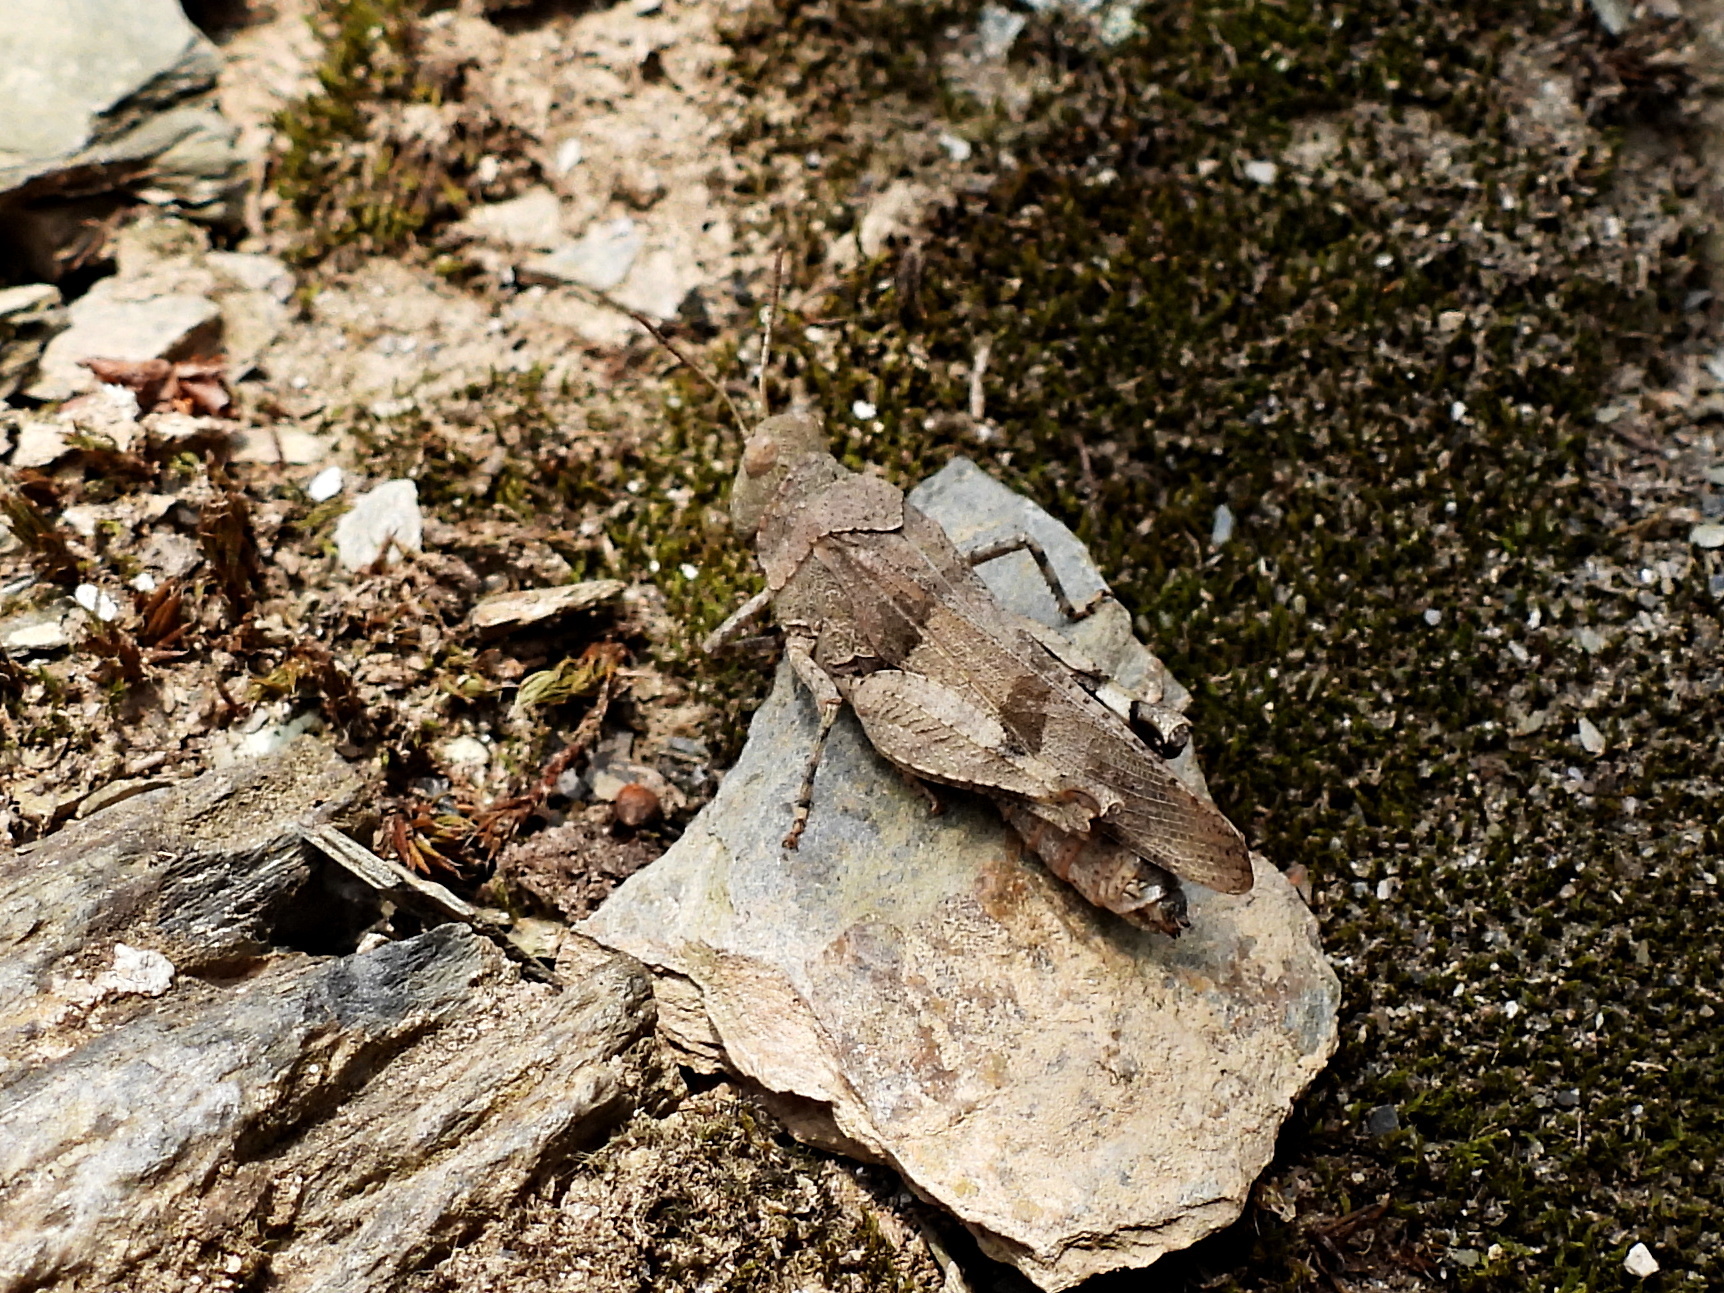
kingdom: Animalia
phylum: Arthropoda
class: Insecta
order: Orthoptera
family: Acrididae
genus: Oedipoda
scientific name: Oedipoda caerulescens
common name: Blue-winged grasshopper
